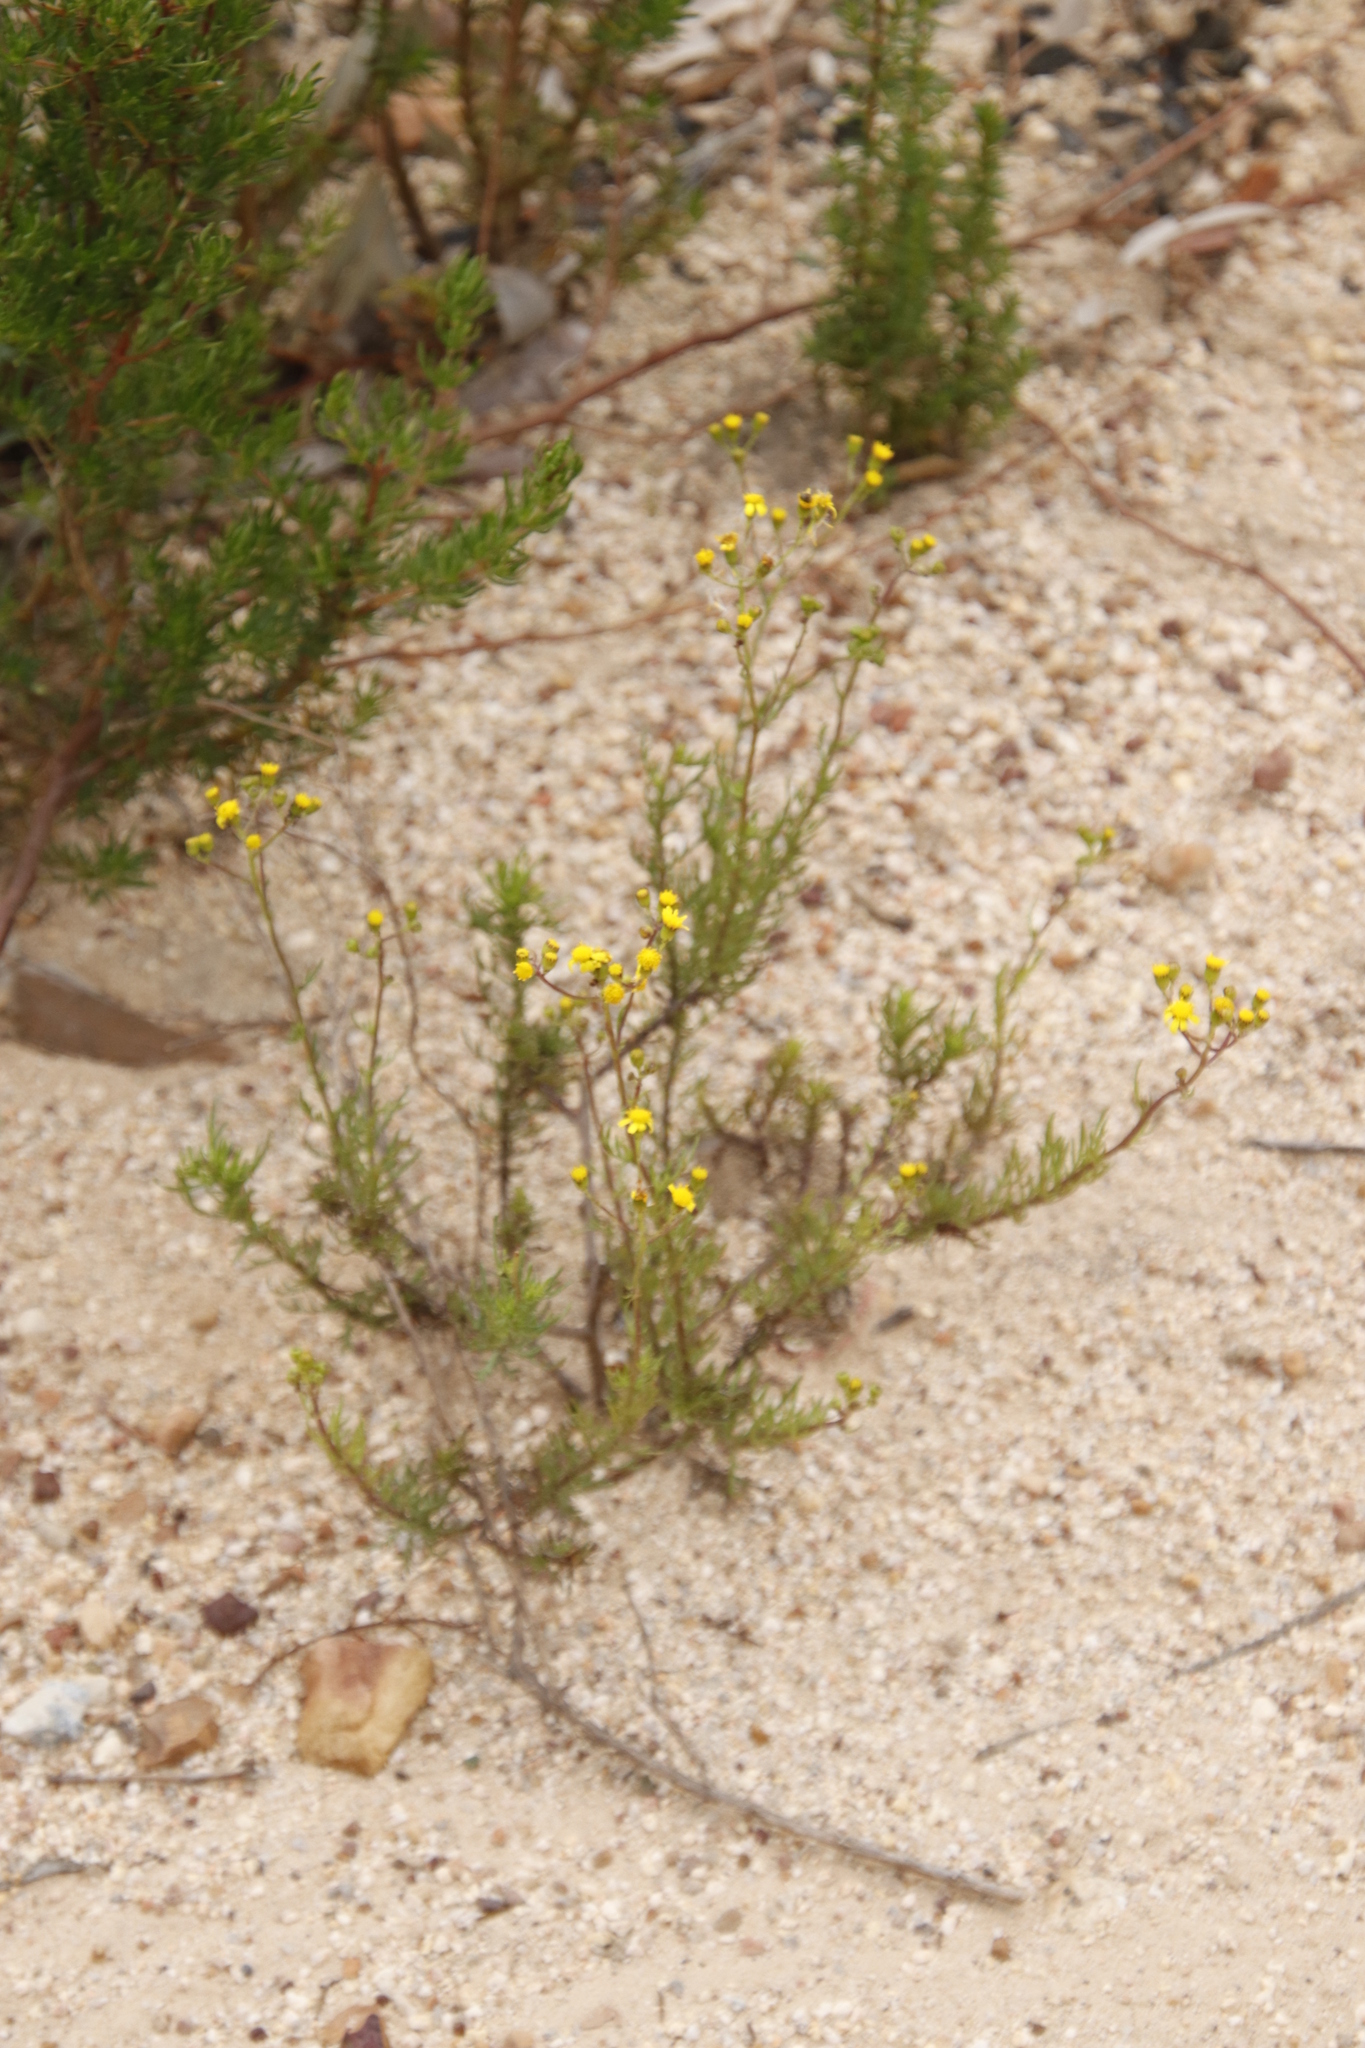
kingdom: Plantae
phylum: Tracheophyta
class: Magnoliopsida
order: Asterales
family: Asteraceae
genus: Senecio
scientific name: Senecio burchellii
